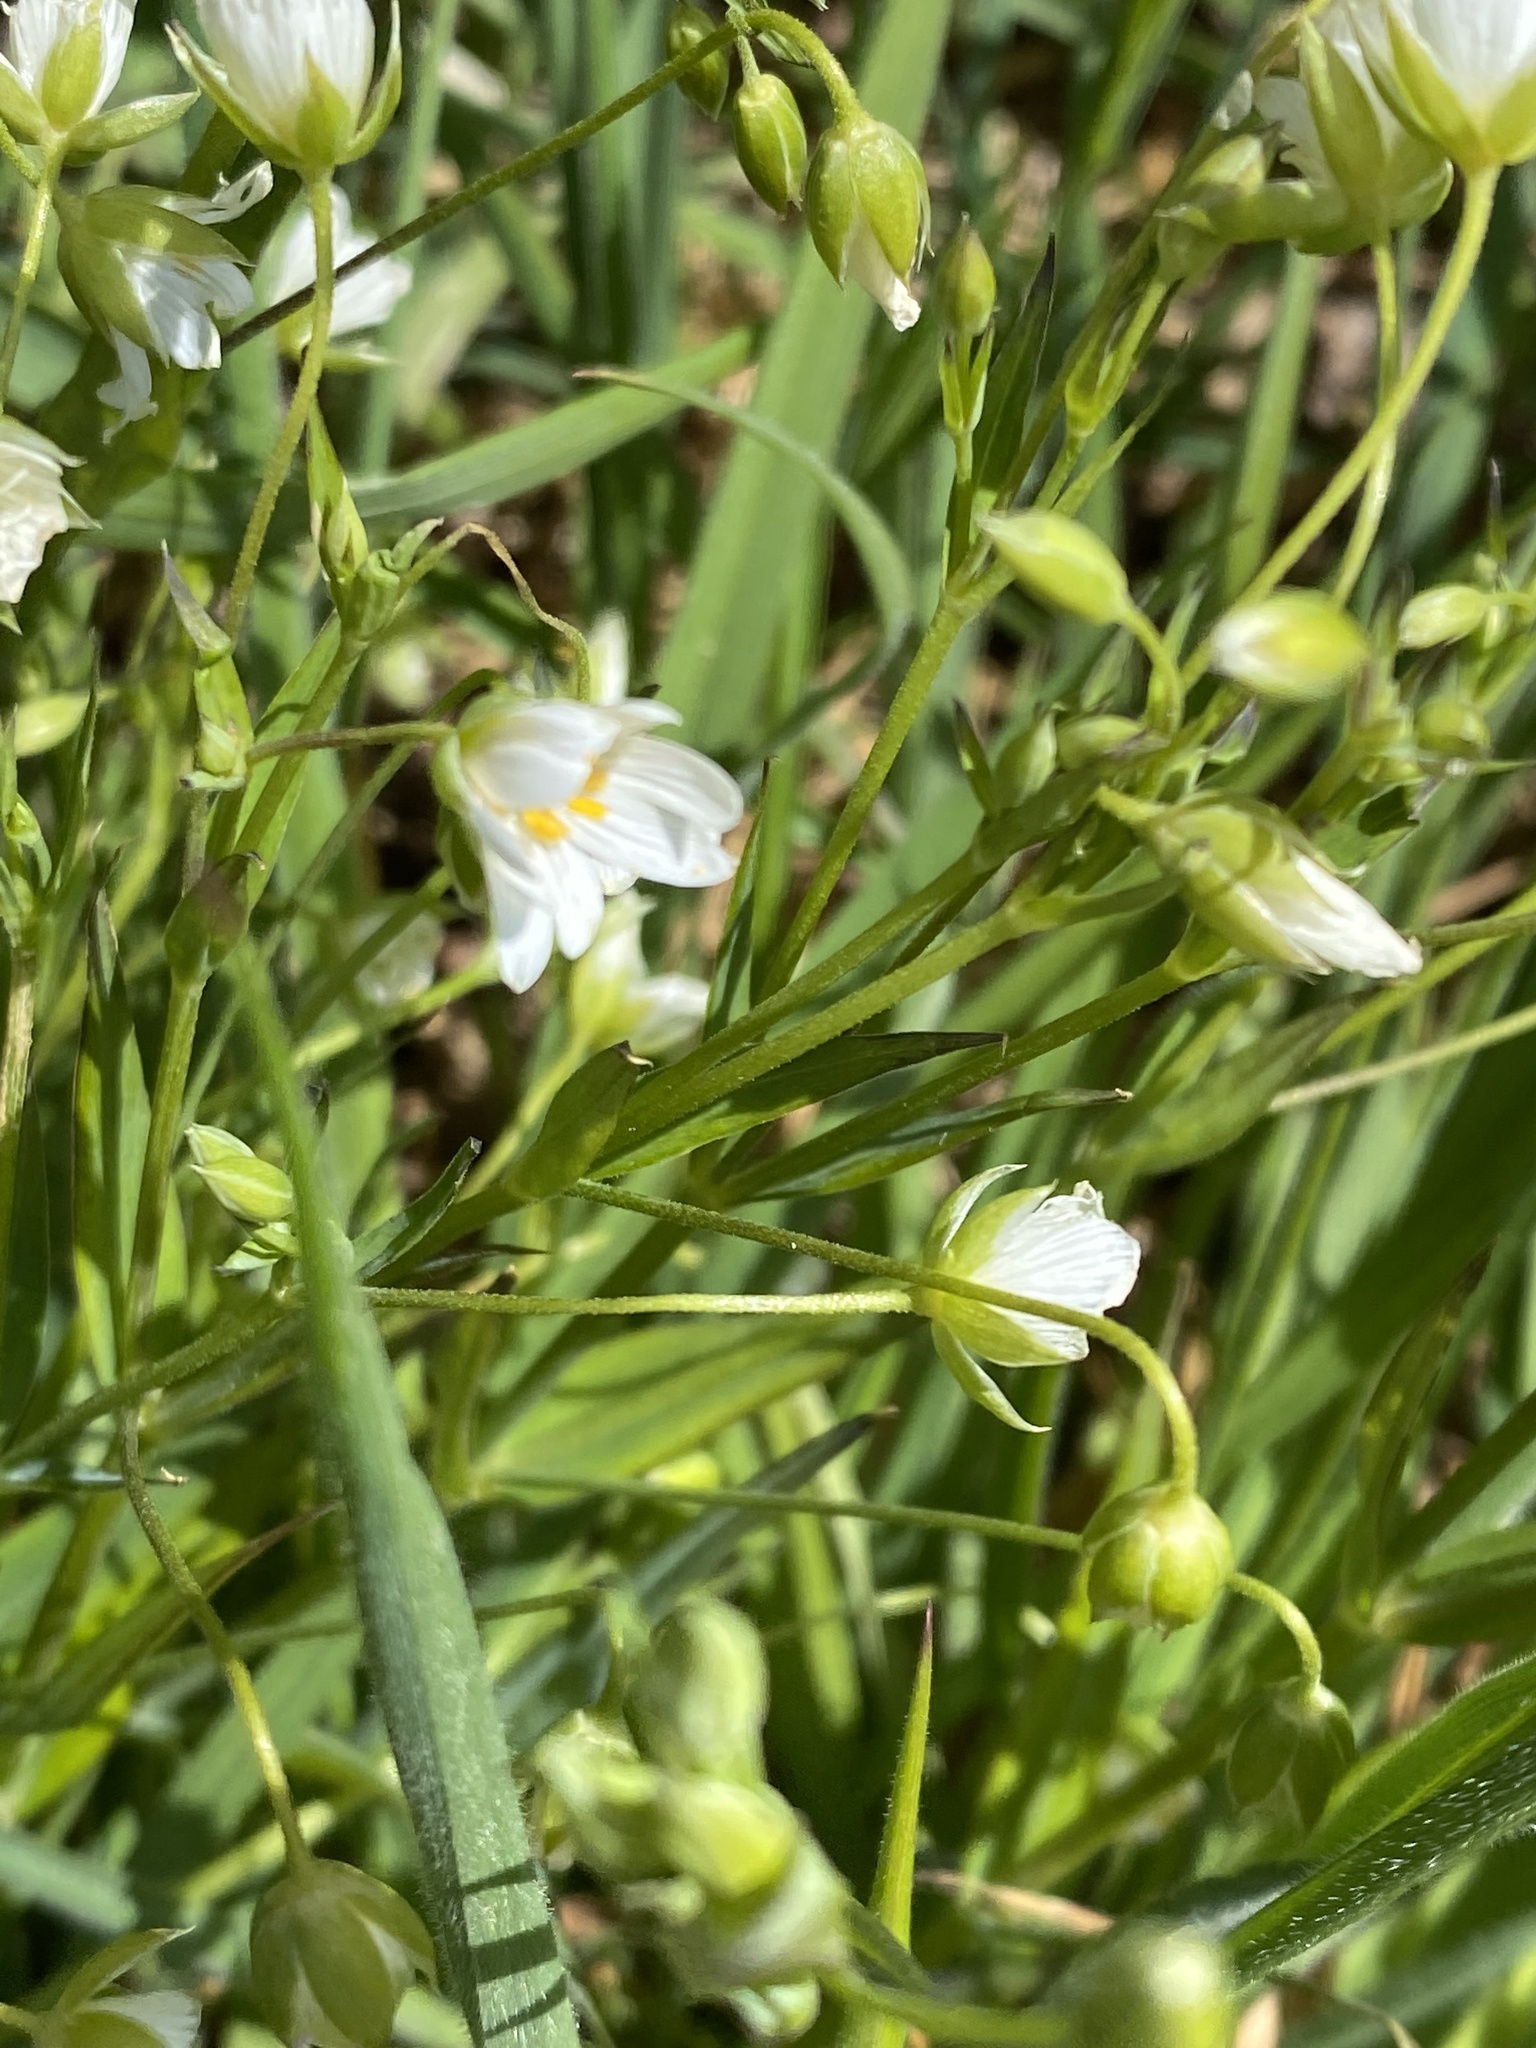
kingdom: Plantae
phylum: Tracheophyta
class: Magnoliopsida
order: Caryophyllales
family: Caryophyllaceae
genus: Rabelera
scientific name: Rabelera holostea
